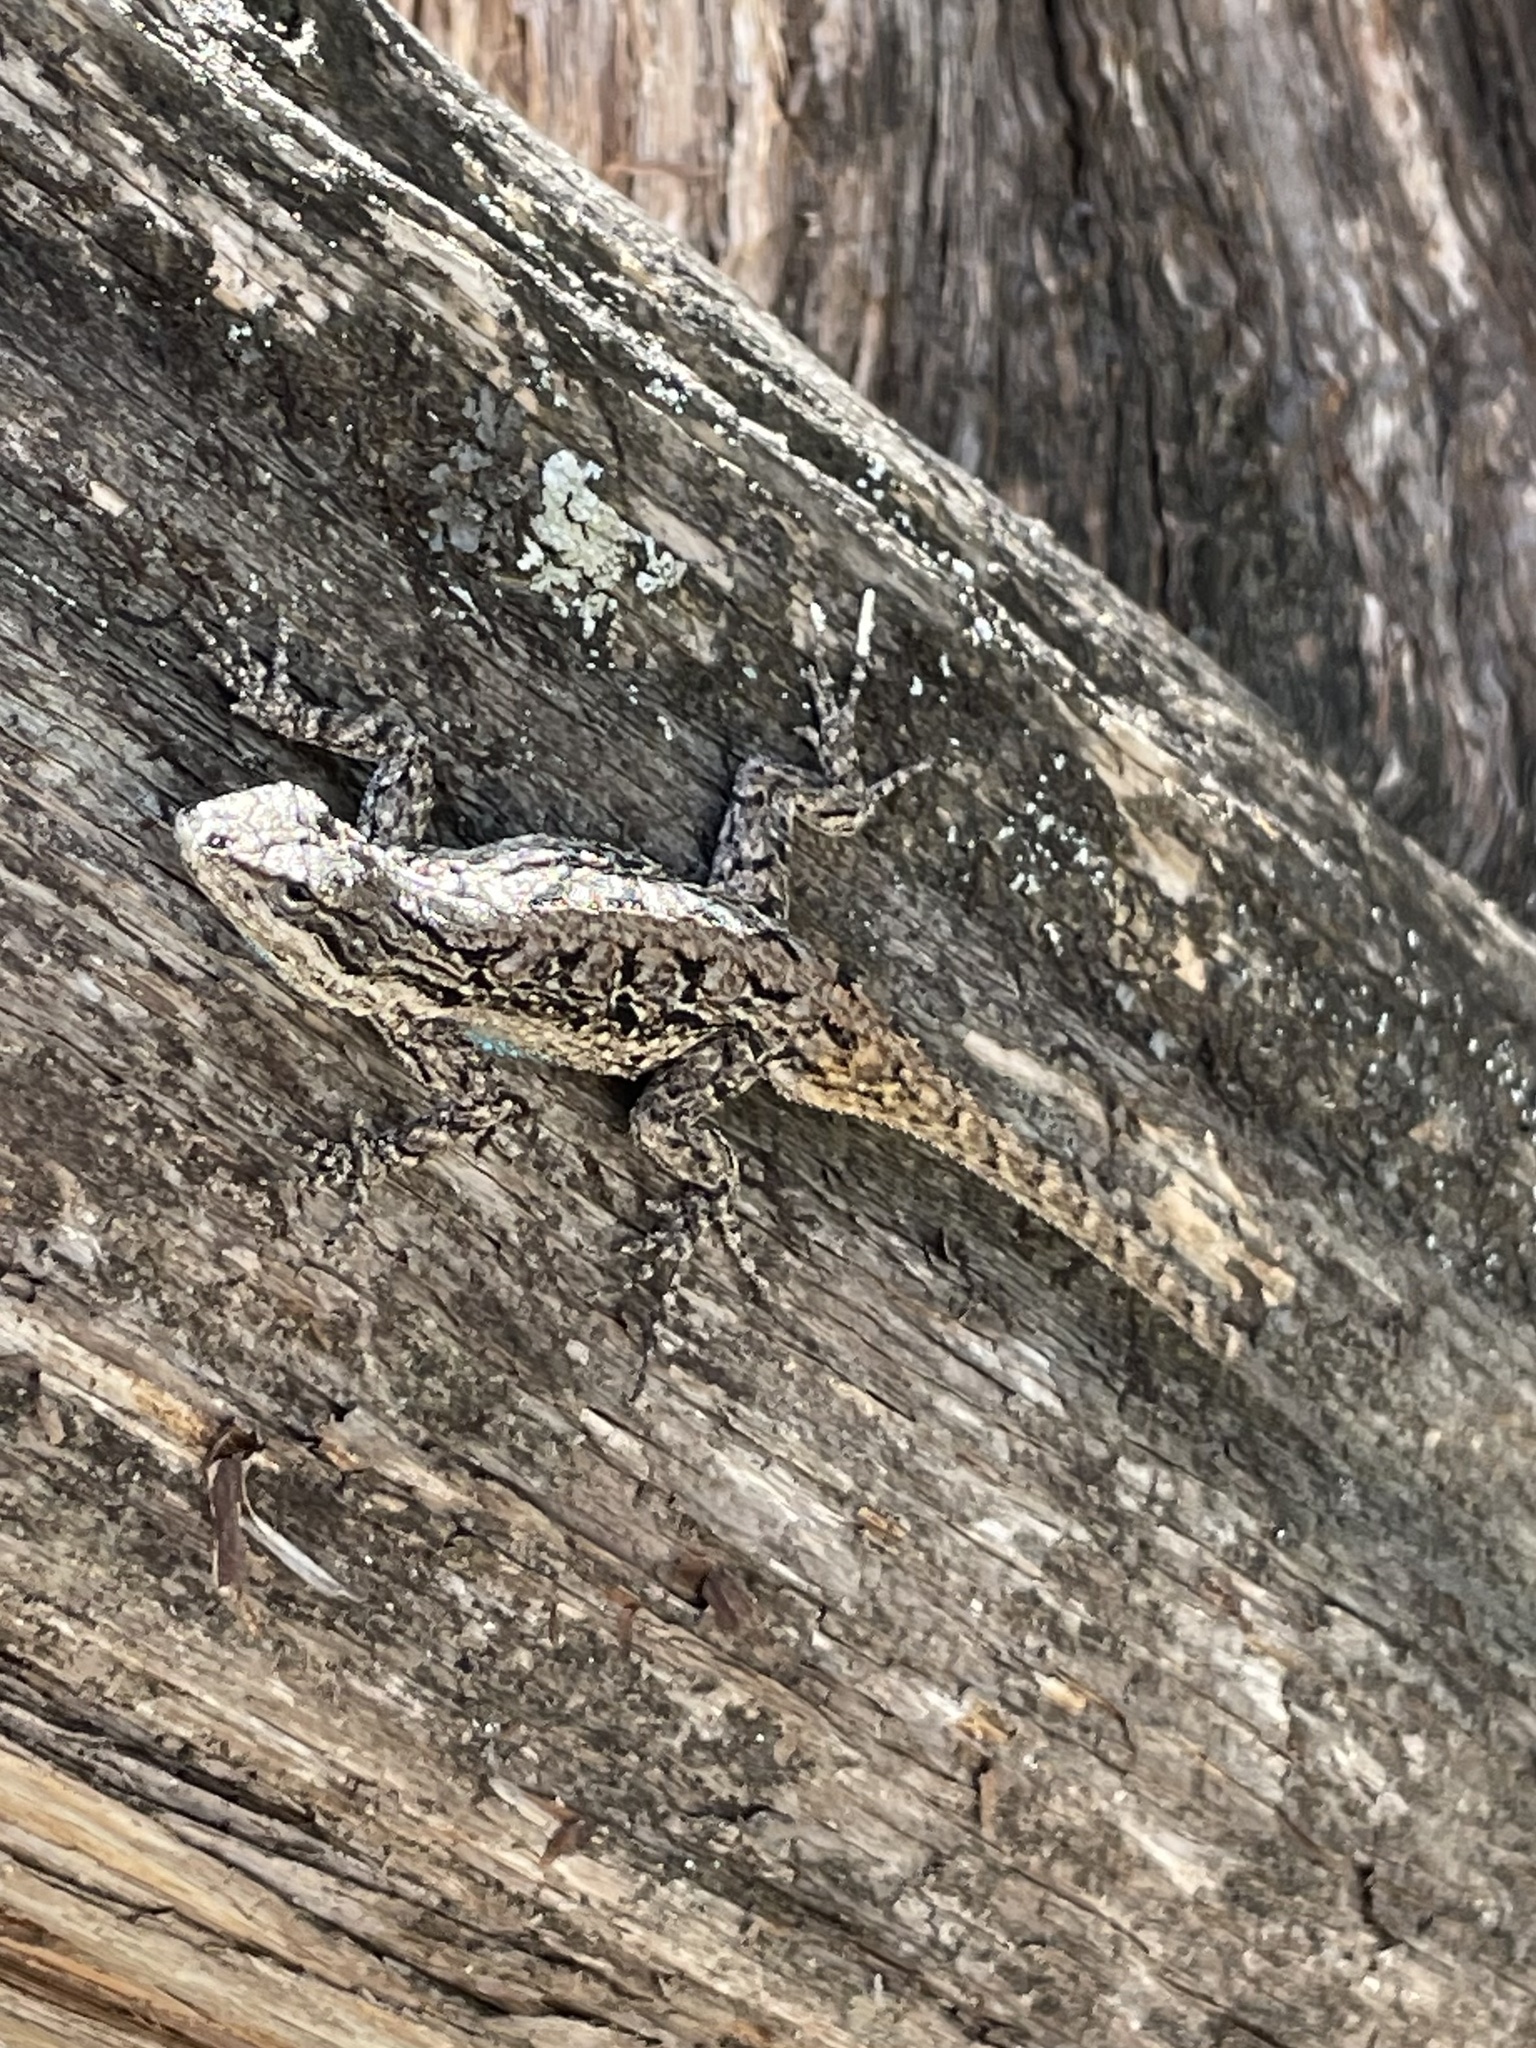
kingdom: Animalia
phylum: Chordata
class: Squamata
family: Phrynosomatidae
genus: Urosaurus
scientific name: Urosaurus ornatus
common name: Ornate tree lizard
